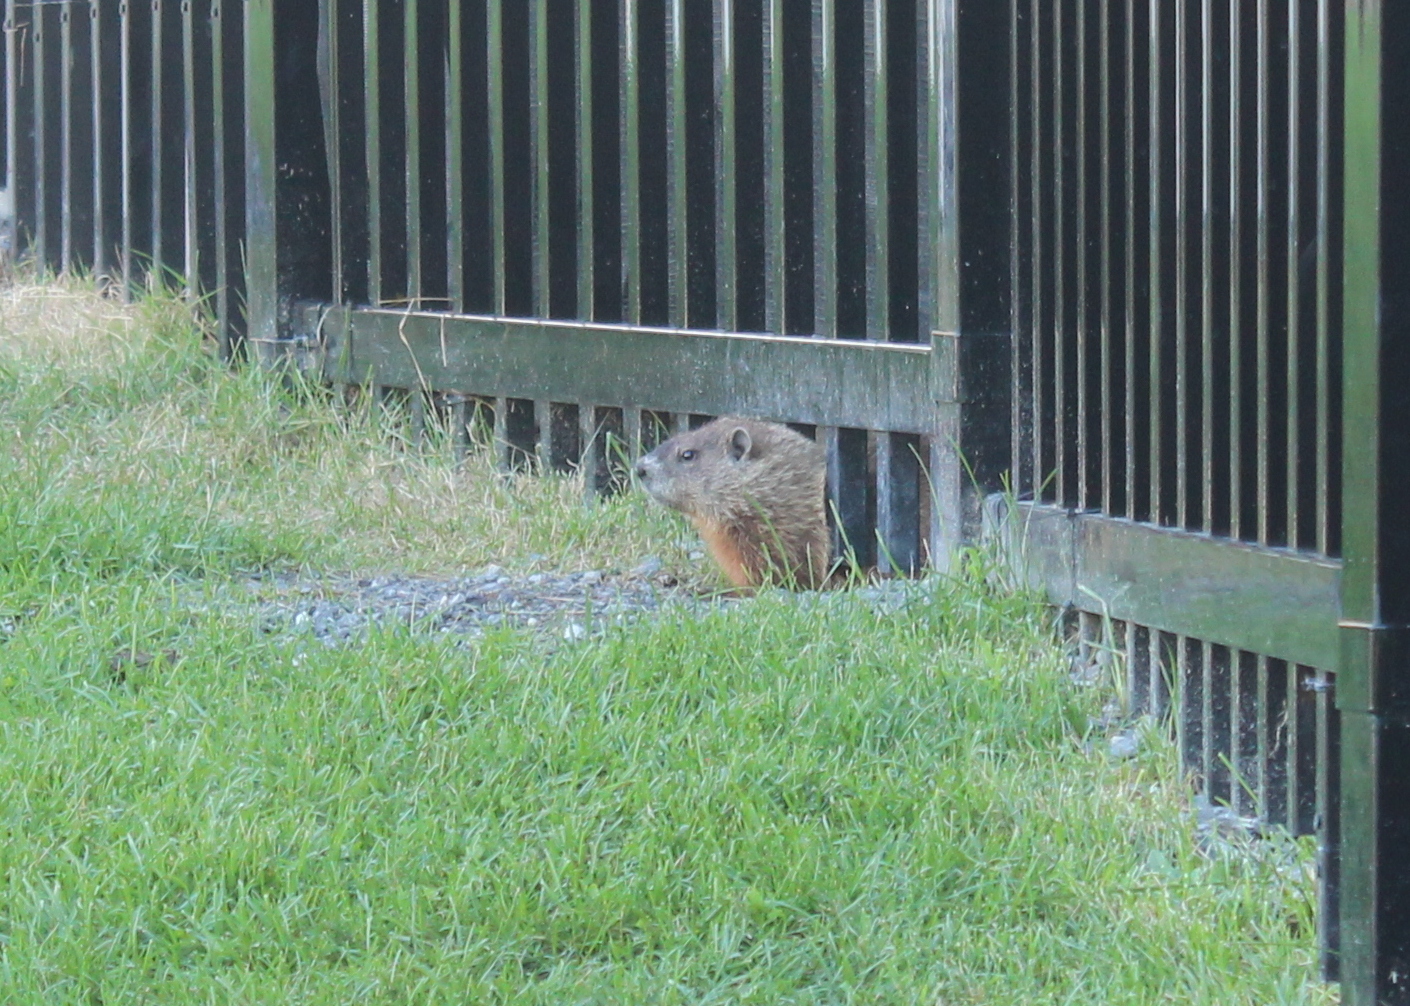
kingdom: Animalia
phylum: Chordata
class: Mammalia
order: Rodentia
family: Sciuridae
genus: Marmota
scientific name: Marmota monax
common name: Groundhog
